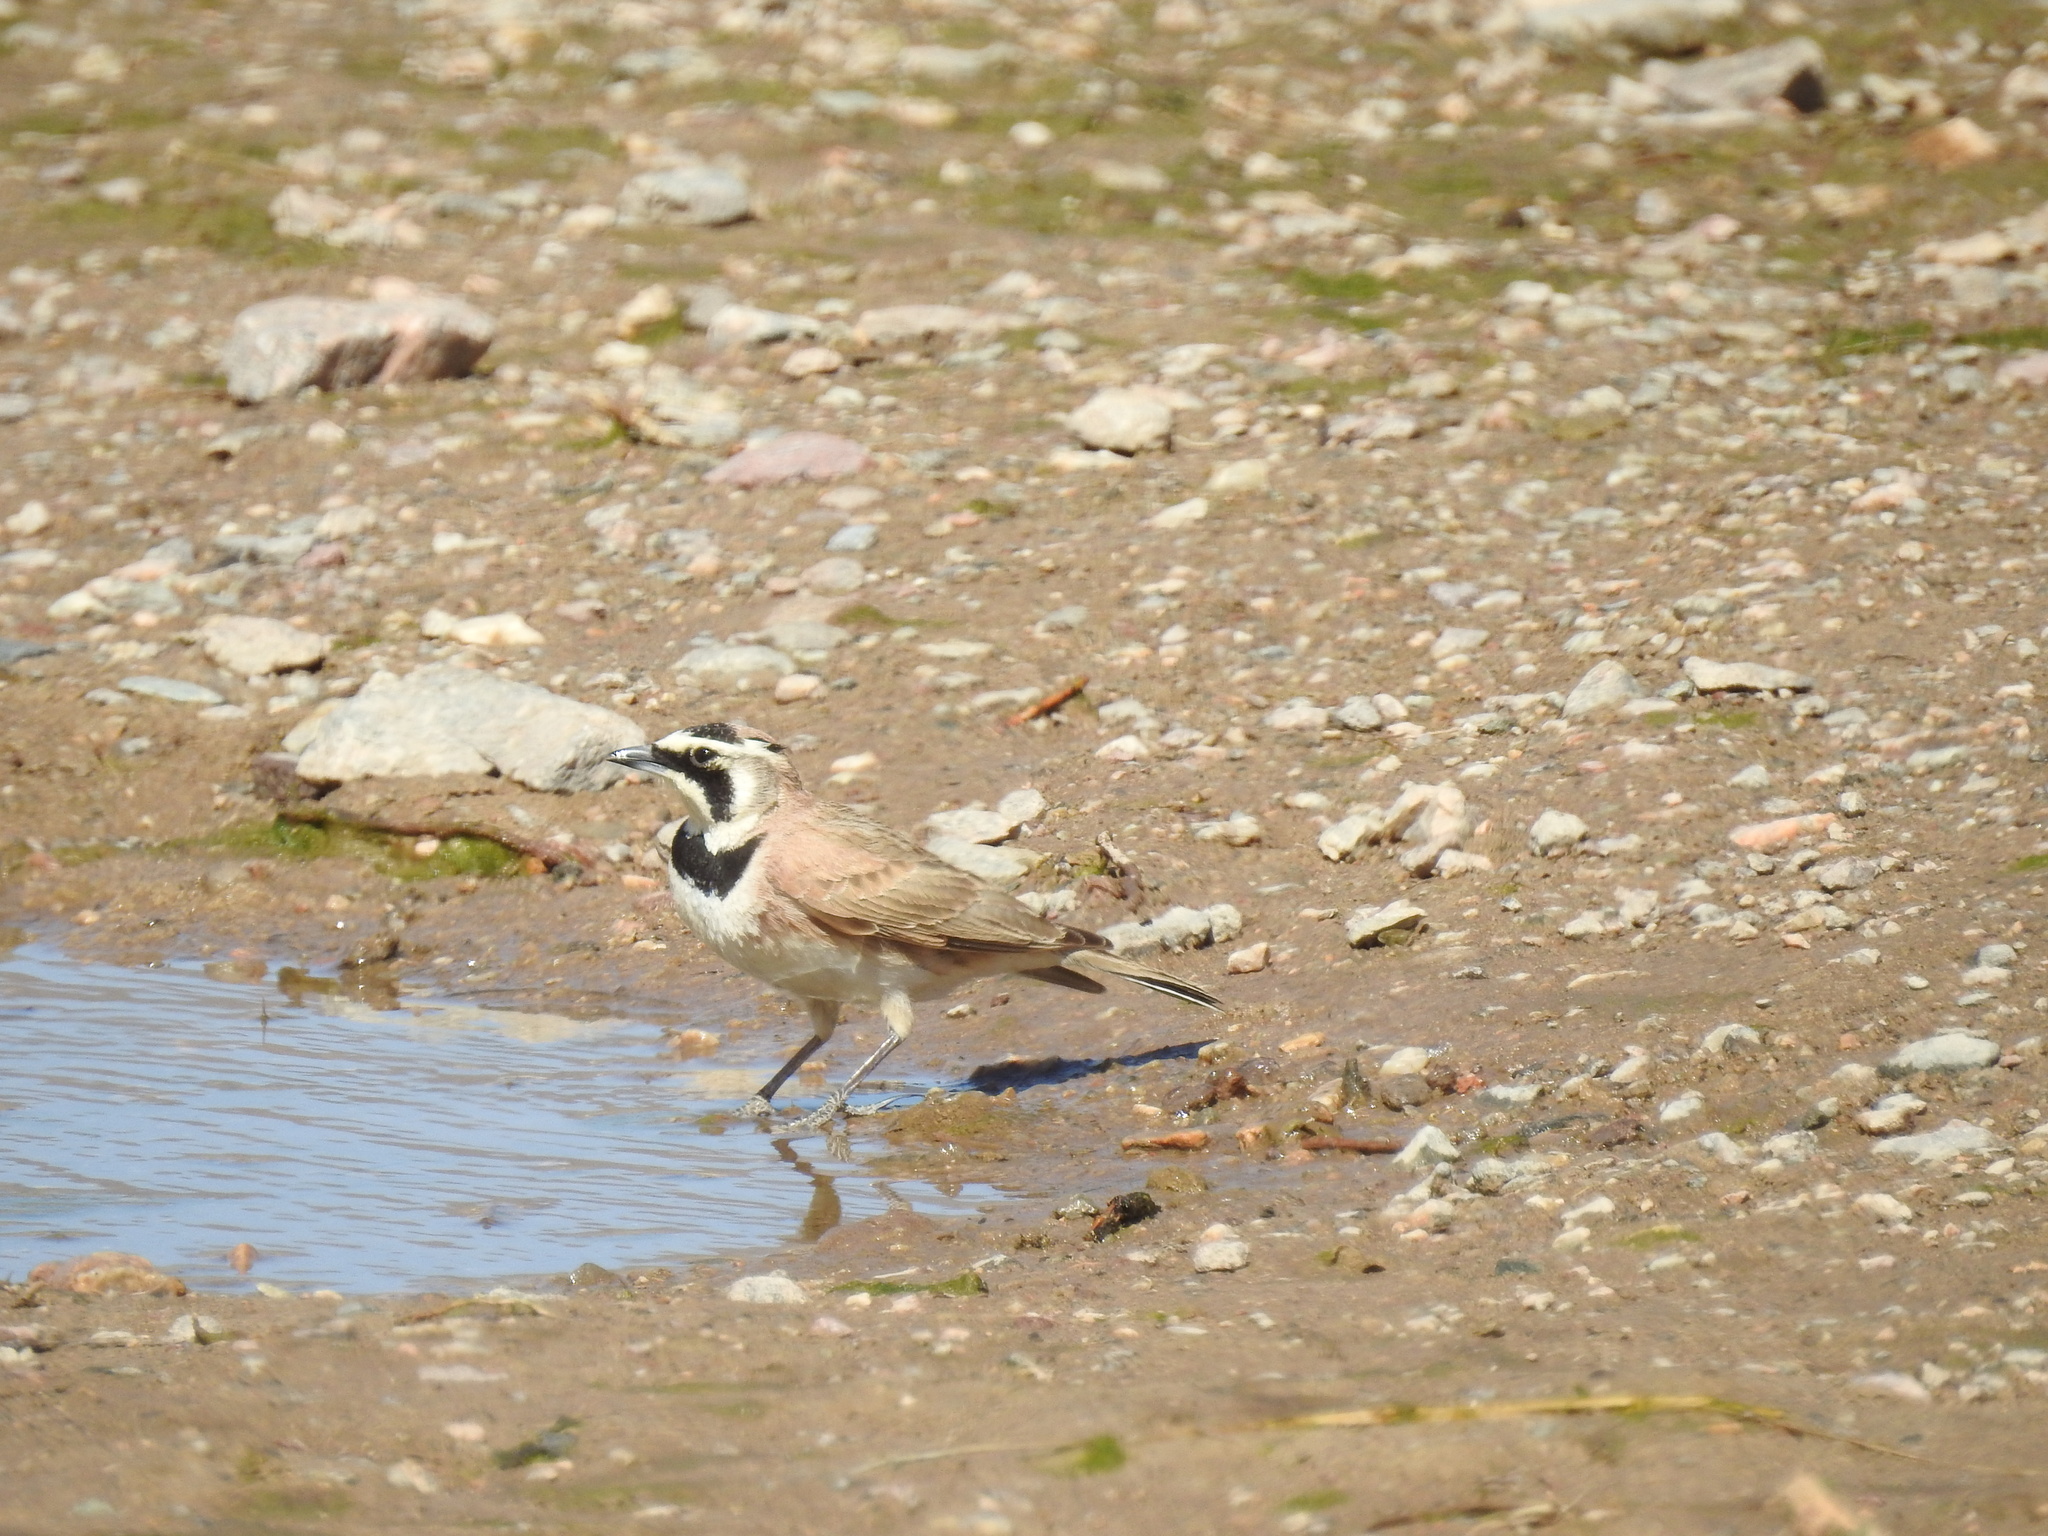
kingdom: Animalia
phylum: Chordata
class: Aves
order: Passeriformes
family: Alaudidae
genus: Eremophila
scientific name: Eremophila alpestris
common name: Horned lark
